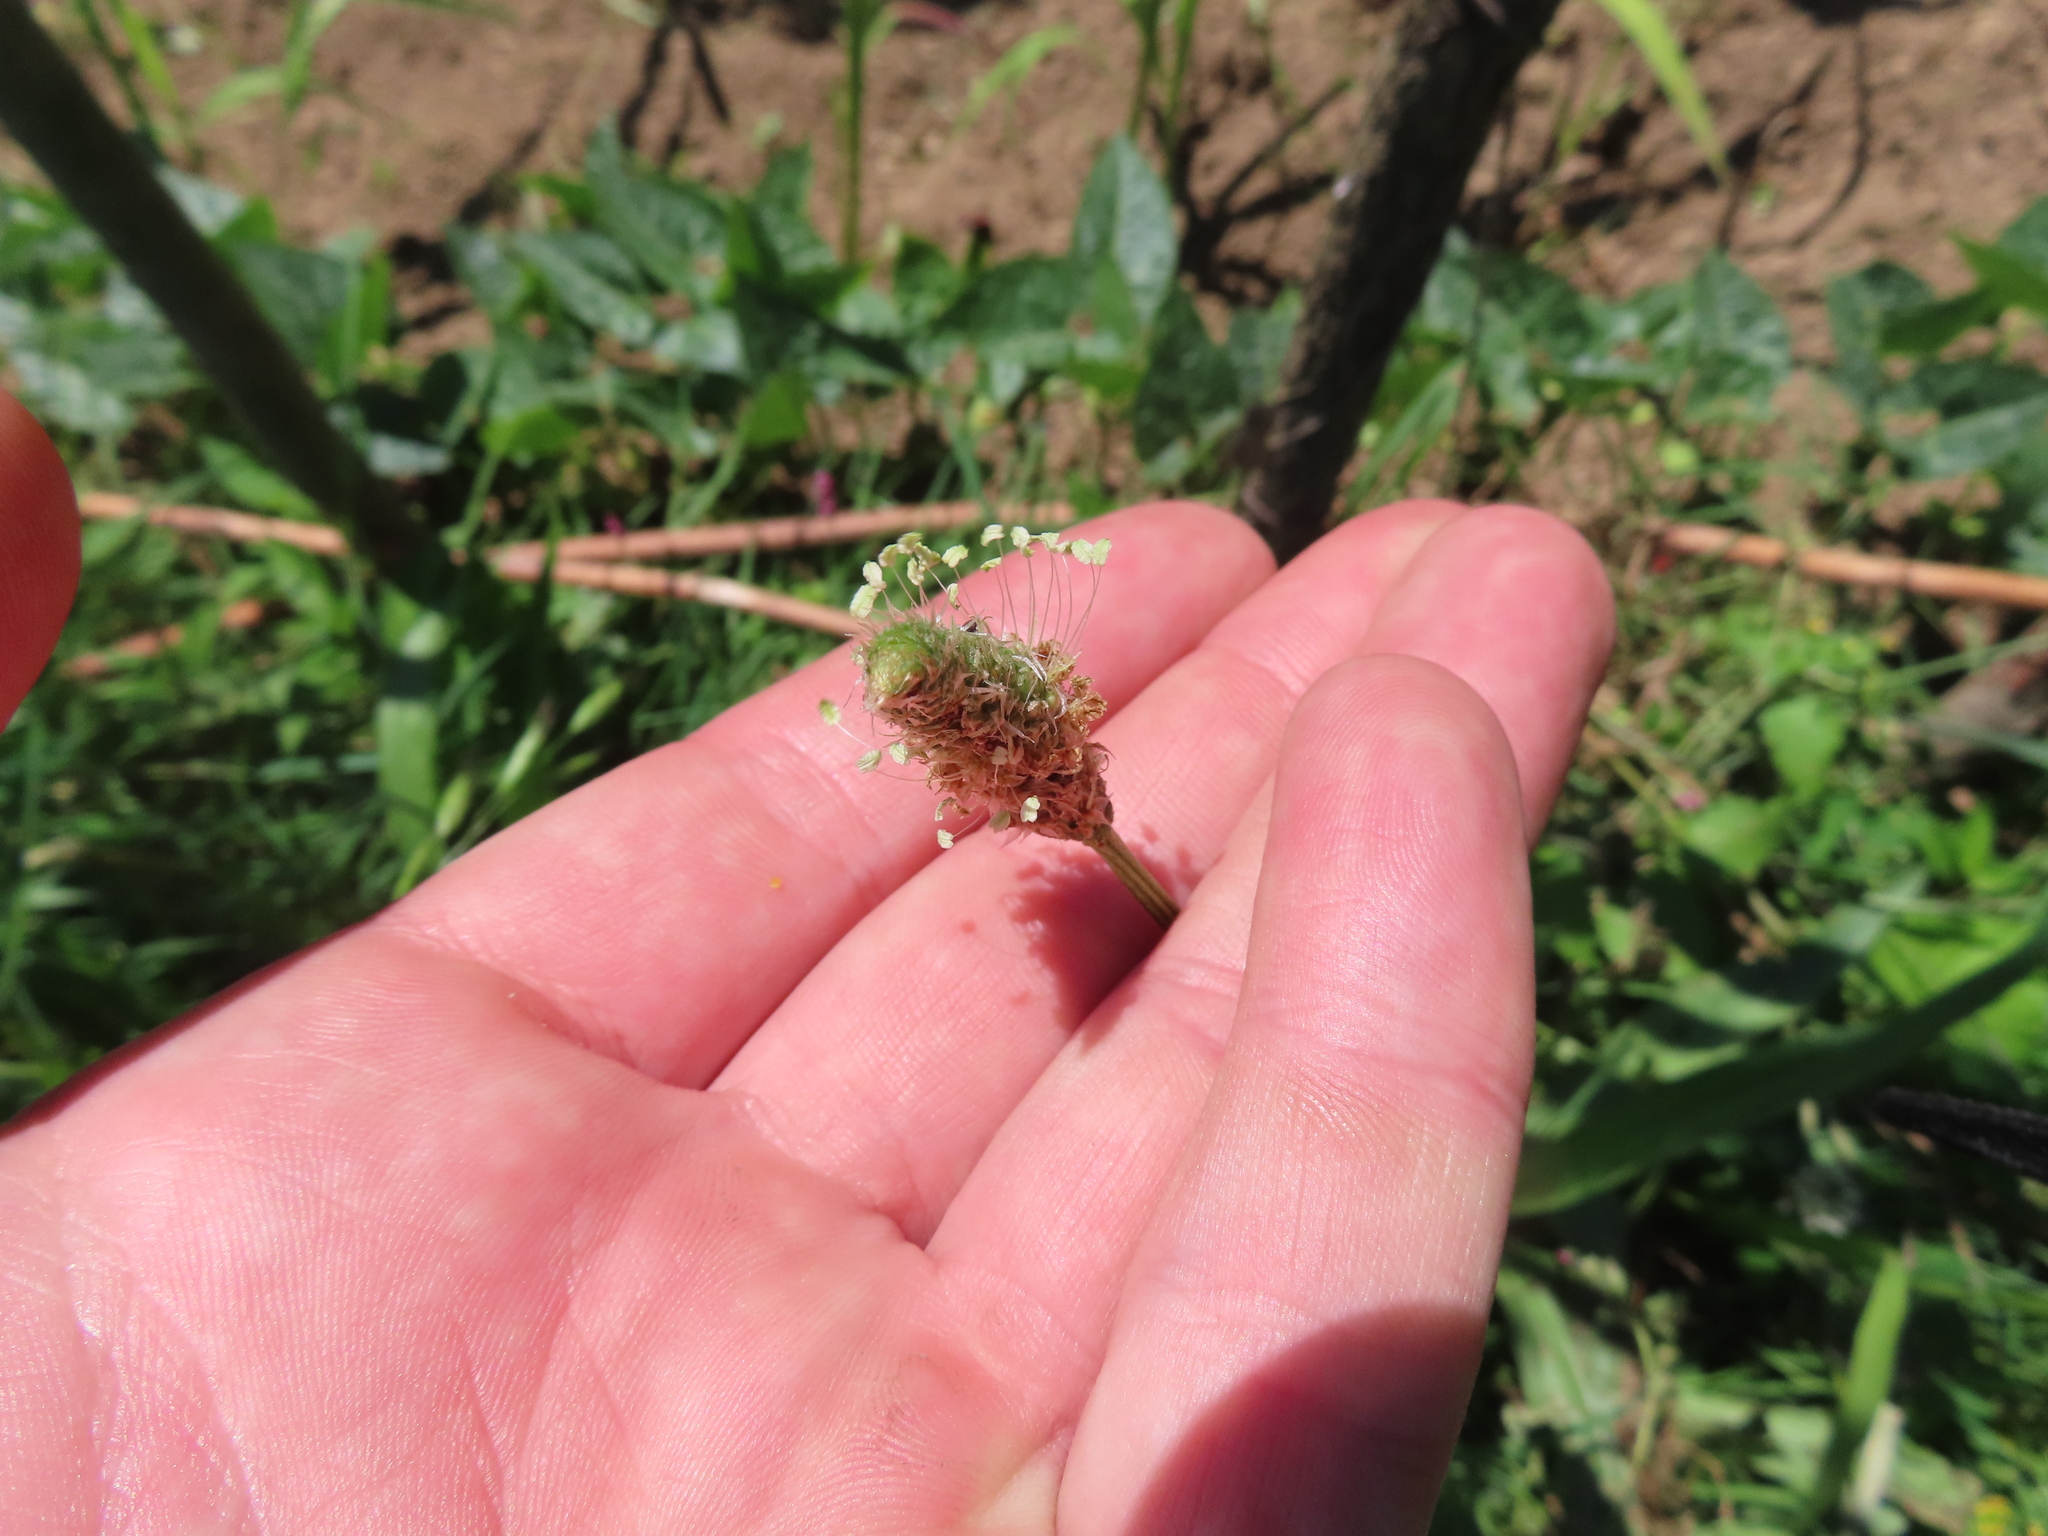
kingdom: Plantae
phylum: Tracheophyta
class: Magnoliopsida
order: Lamiales
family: Plantaginaceae
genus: Plantago
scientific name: Plantago lanceolata
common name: Ribwort plantain
